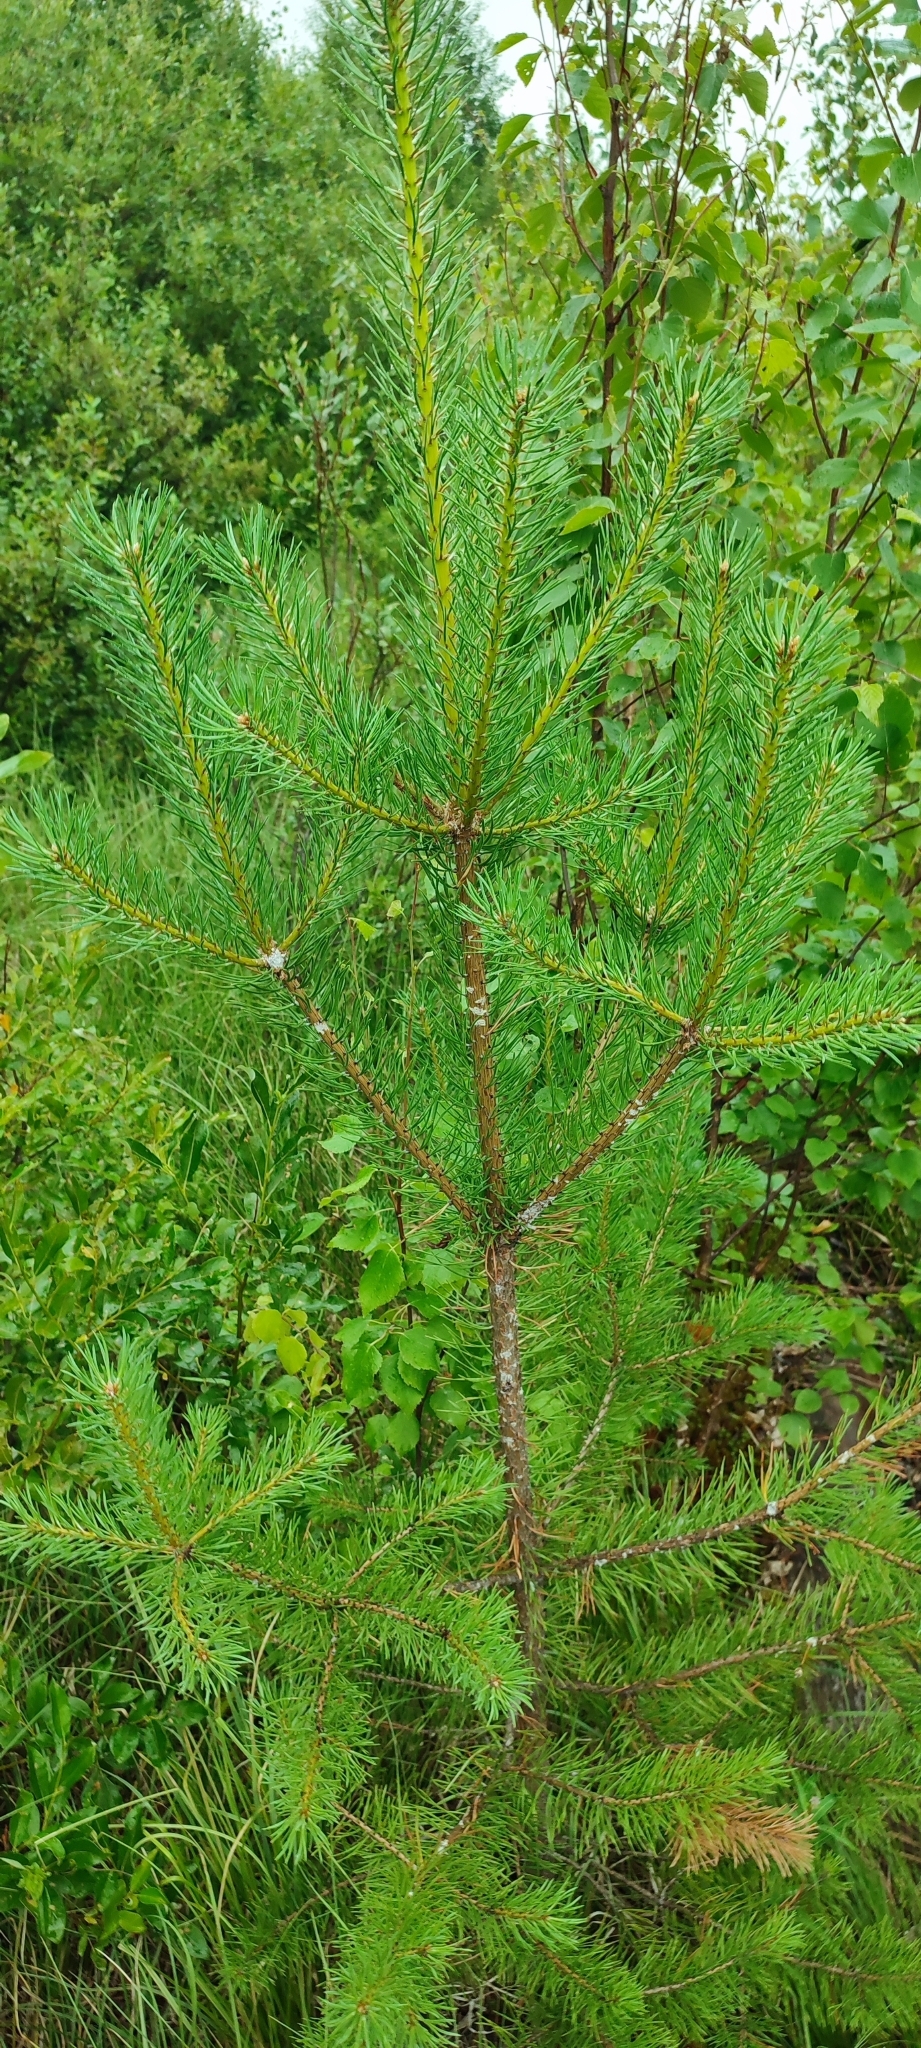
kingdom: Plantae
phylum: Tracheophyta
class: Pinopsida
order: Pinales
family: Pinaceae
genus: Pinus
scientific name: Pinus sylvestris
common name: Scots pine
